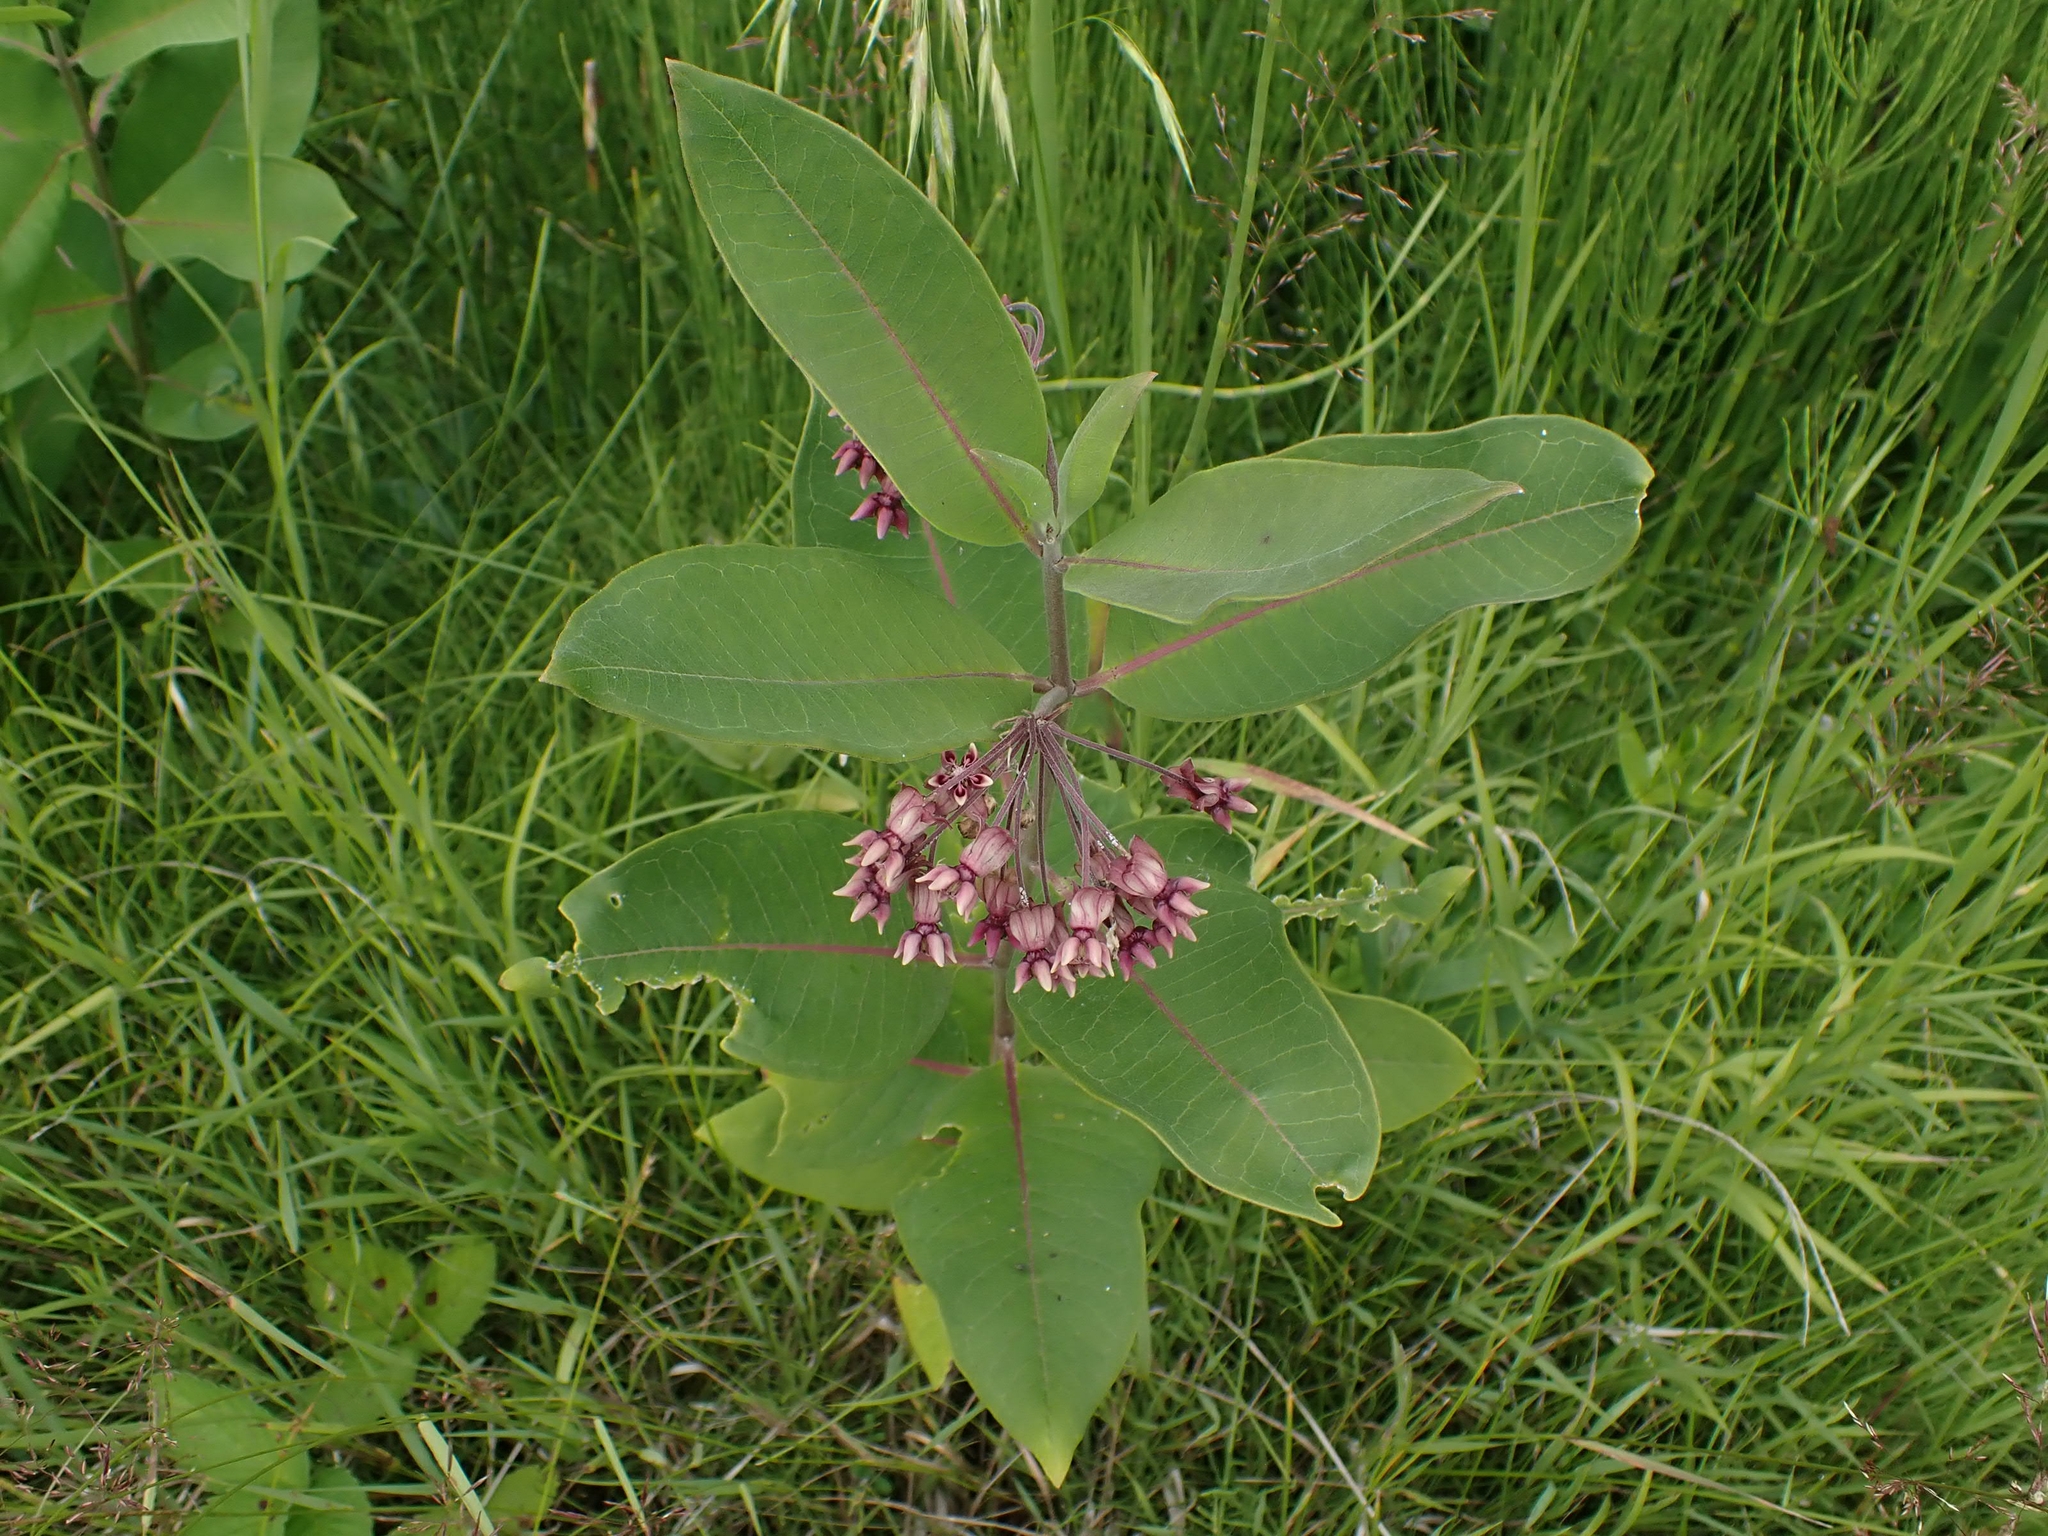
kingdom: Plantae
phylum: Tracheophyta
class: Magnoliopsida
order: Gentianales
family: Apocynaceae
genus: Asclepias
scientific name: Asclepias syriaca
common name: Common milkweed
